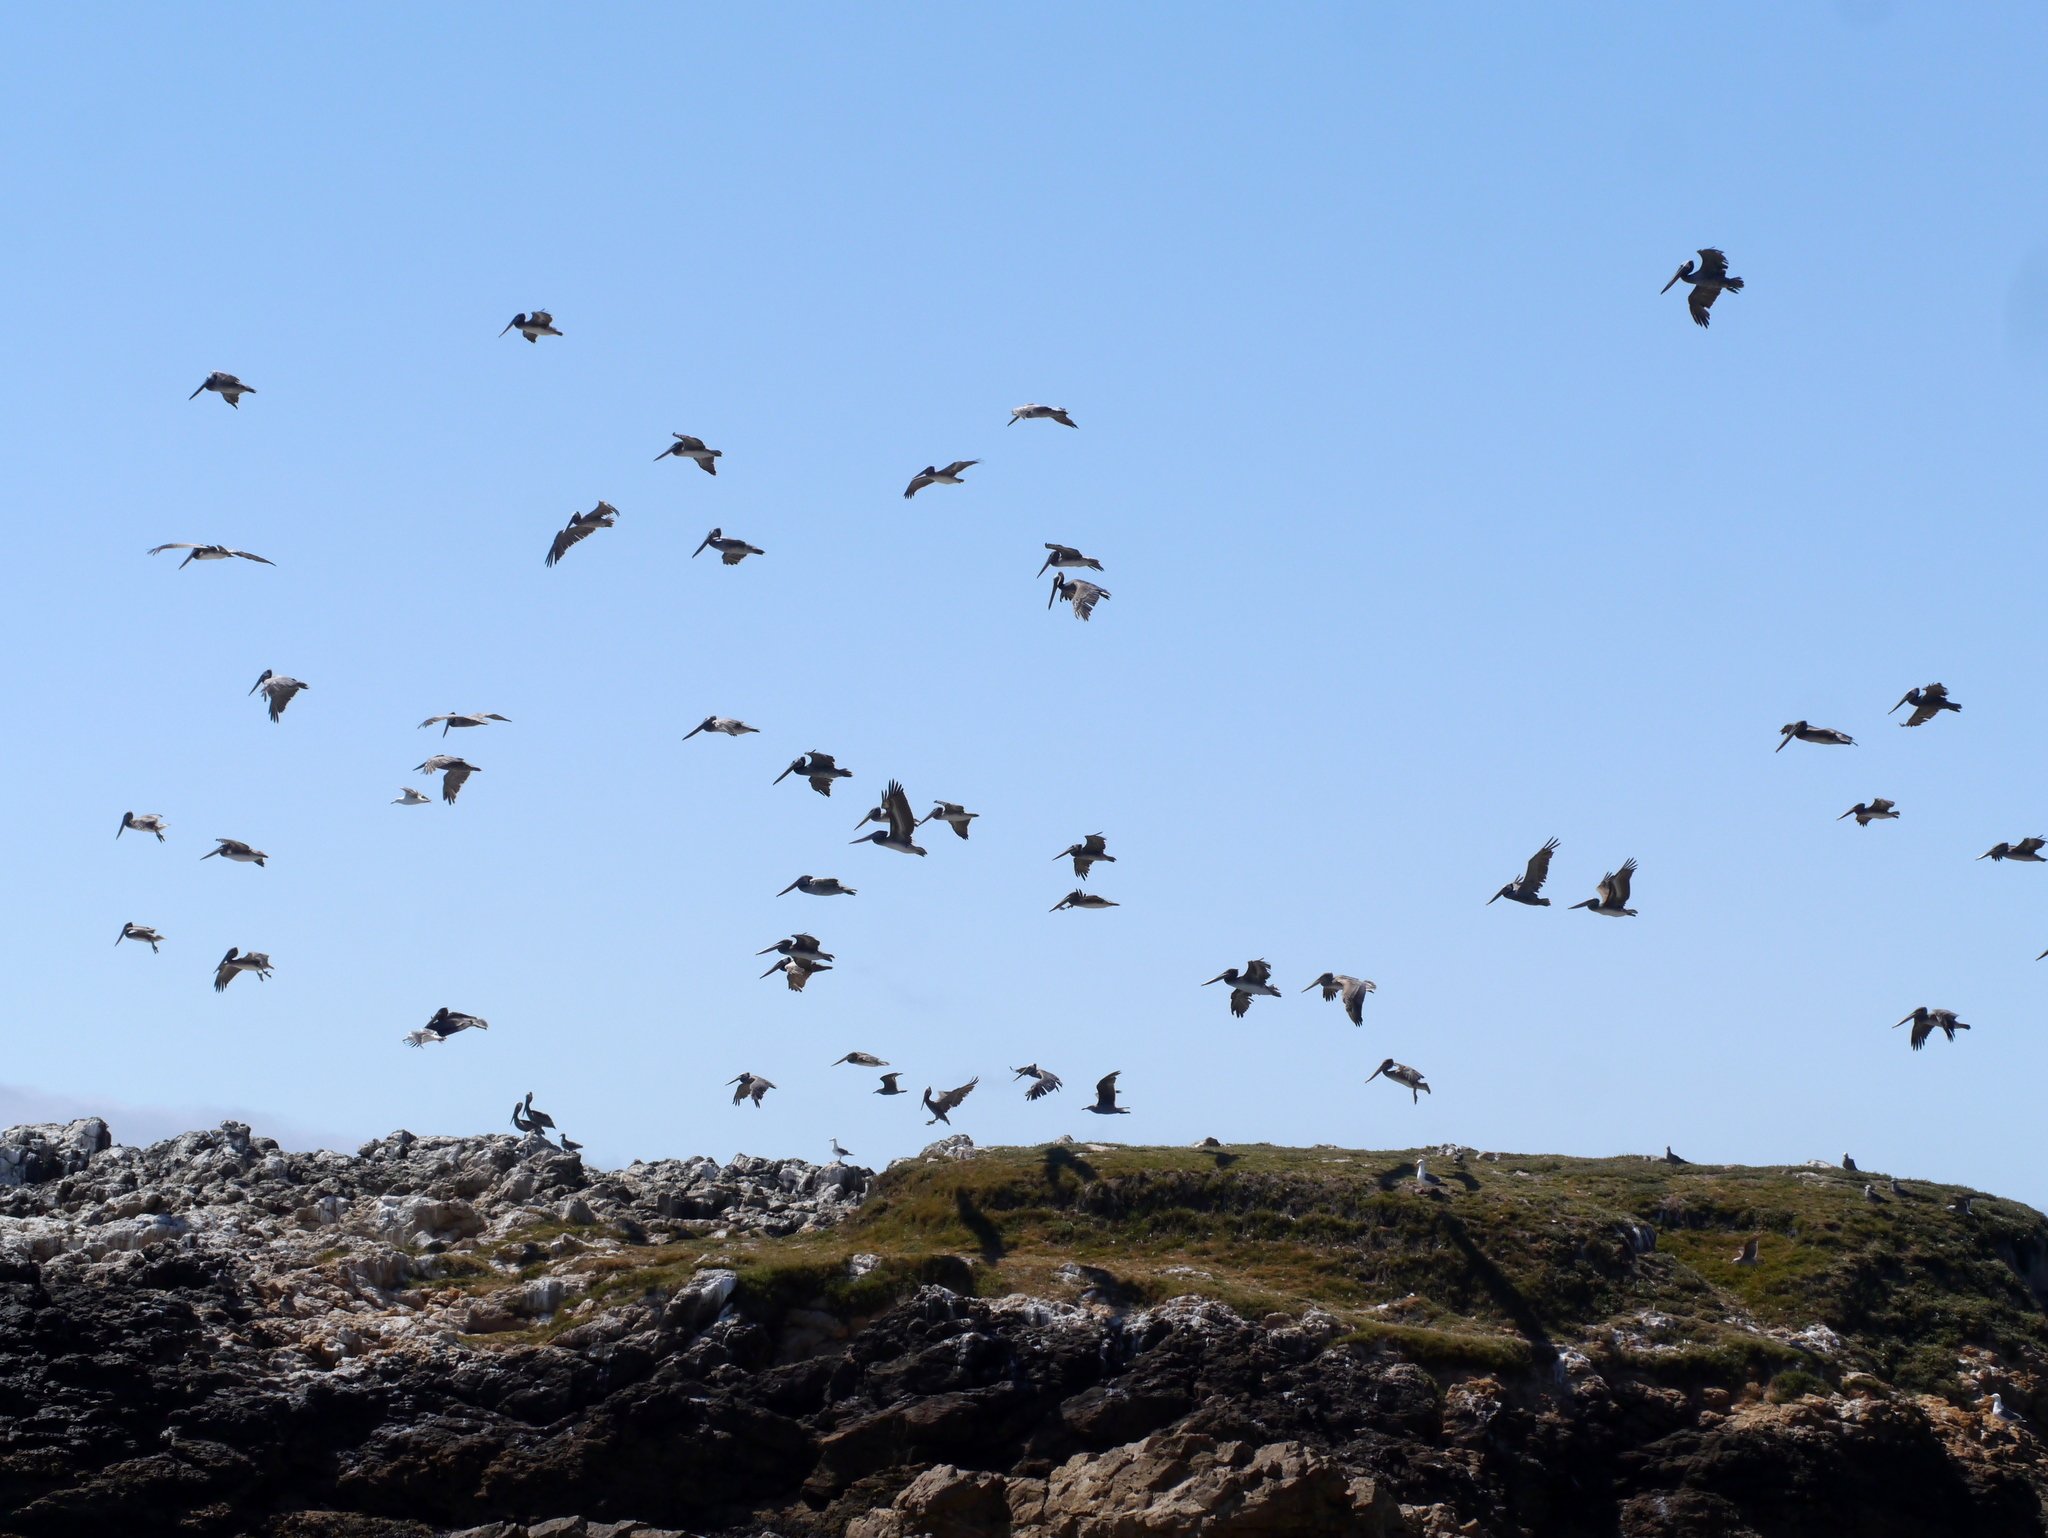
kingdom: Animalia
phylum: Chordata
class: Aves
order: Pelecaniformes
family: Pelecanidae
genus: Pelecanus
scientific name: Pelecanus occidentalis
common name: Brown pelican
